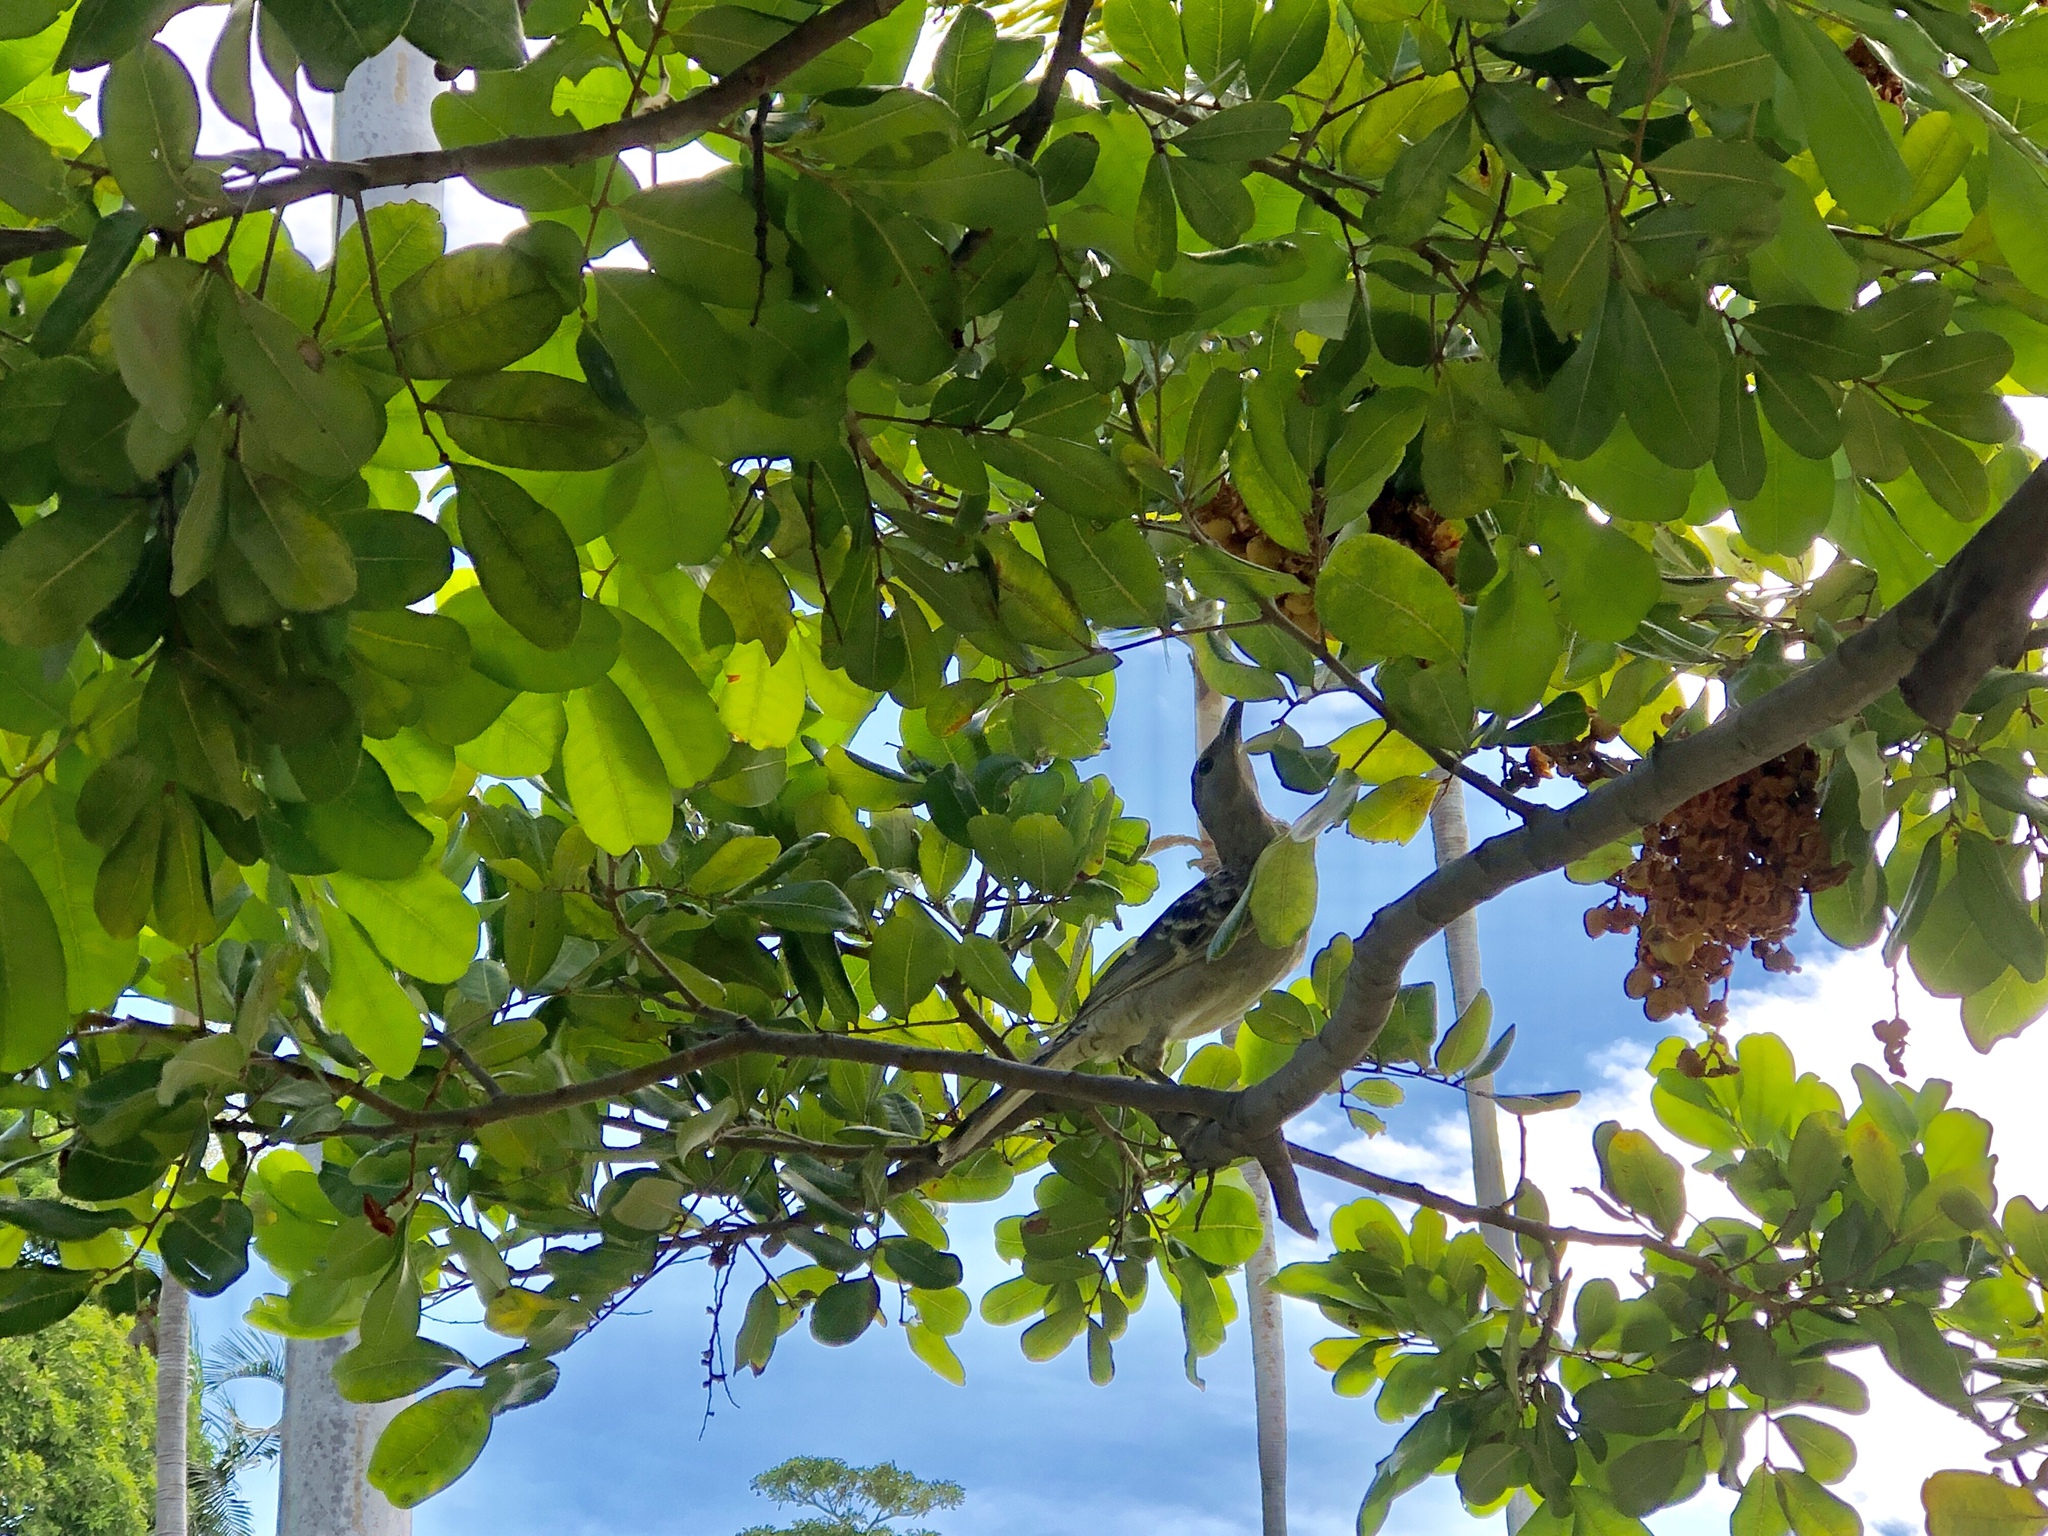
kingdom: Animalia
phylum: Chordata
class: Aves
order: Passeriformes
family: Ptilonorhynchidae
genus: Chlamydera
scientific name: Chlamydera nuchalis
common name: Great bowerbird
